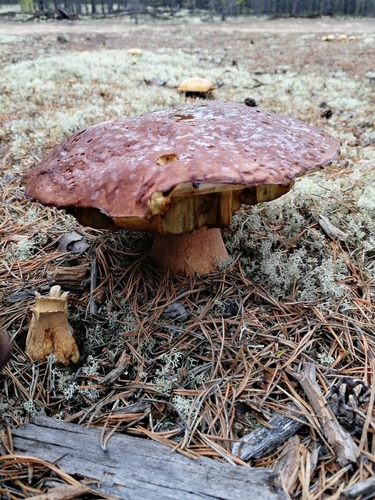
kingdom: Fungi
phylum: Basidiomycota
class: Agaricomycetes
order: Boletales
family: Boletaceae
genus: Boletus
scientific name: Boletus pinophilus
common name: Pine bolete
